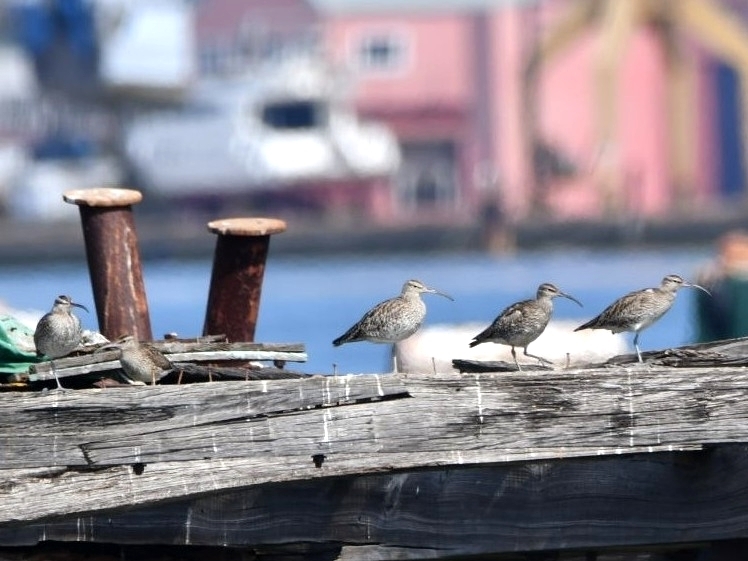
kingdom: Animalia
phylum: Chordata
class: Aves
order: Charadriiformes
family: Scolopacidae
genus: Numenius
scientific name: Numenius phaeopus
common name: Whimbrel
